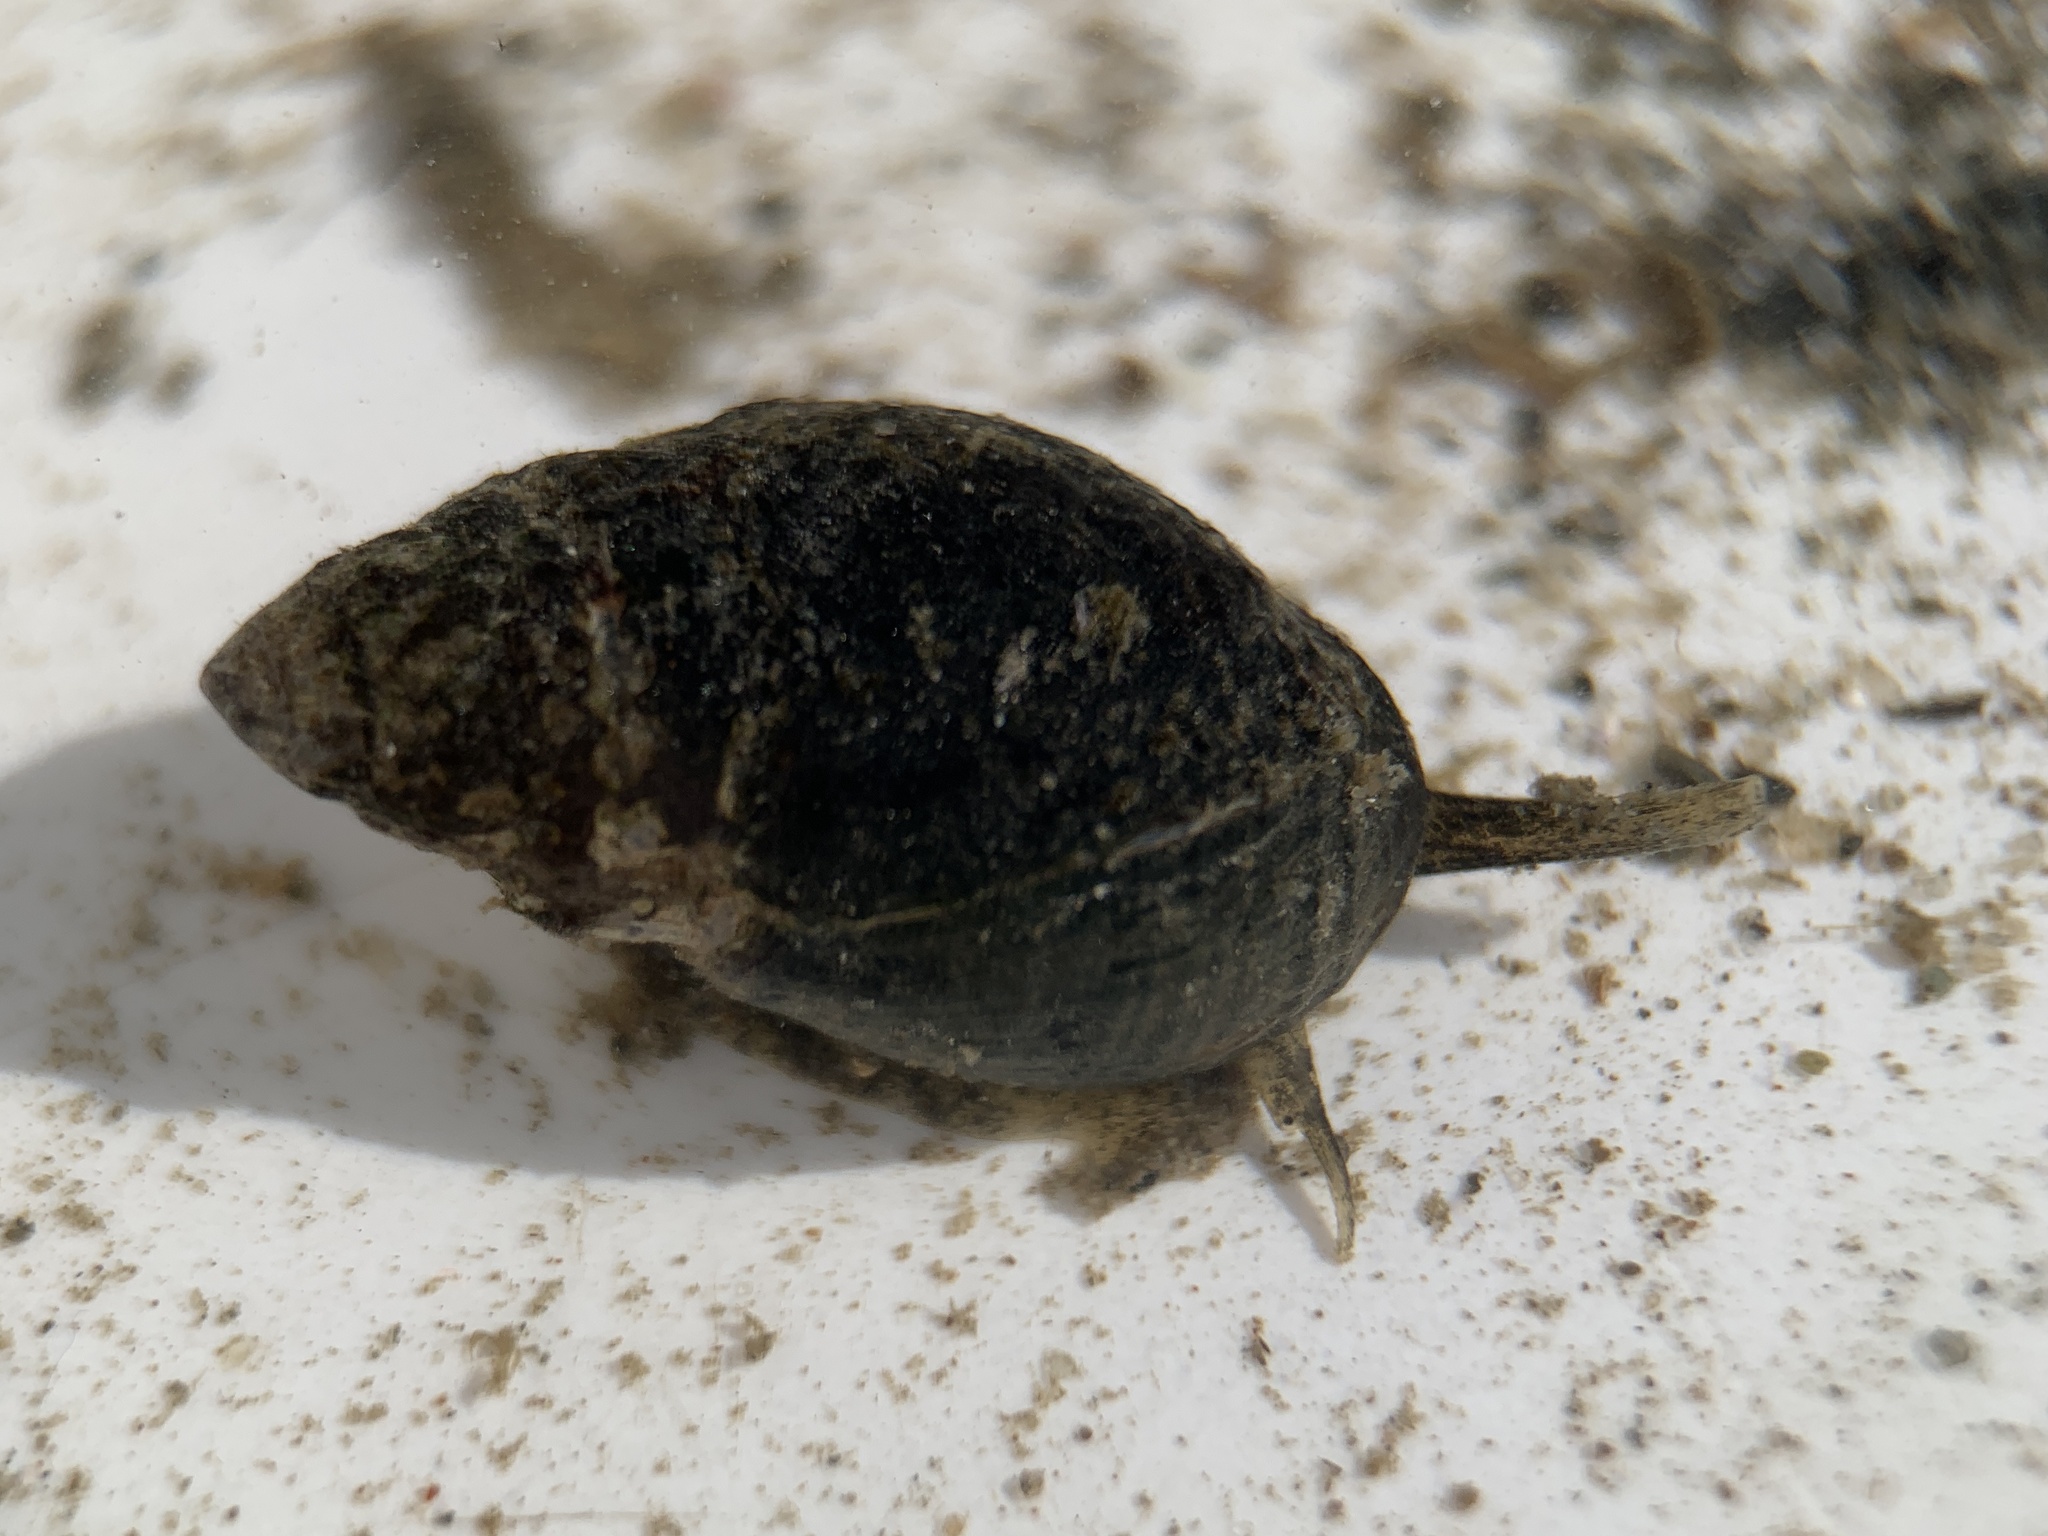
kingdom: Animalia
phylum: Mollusca
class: Gastropoda
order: Neogastropoda
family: Nassariidae
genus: Ilyanassa
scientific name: Ilyanassa obsoleta
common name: Eastern mudsnail
